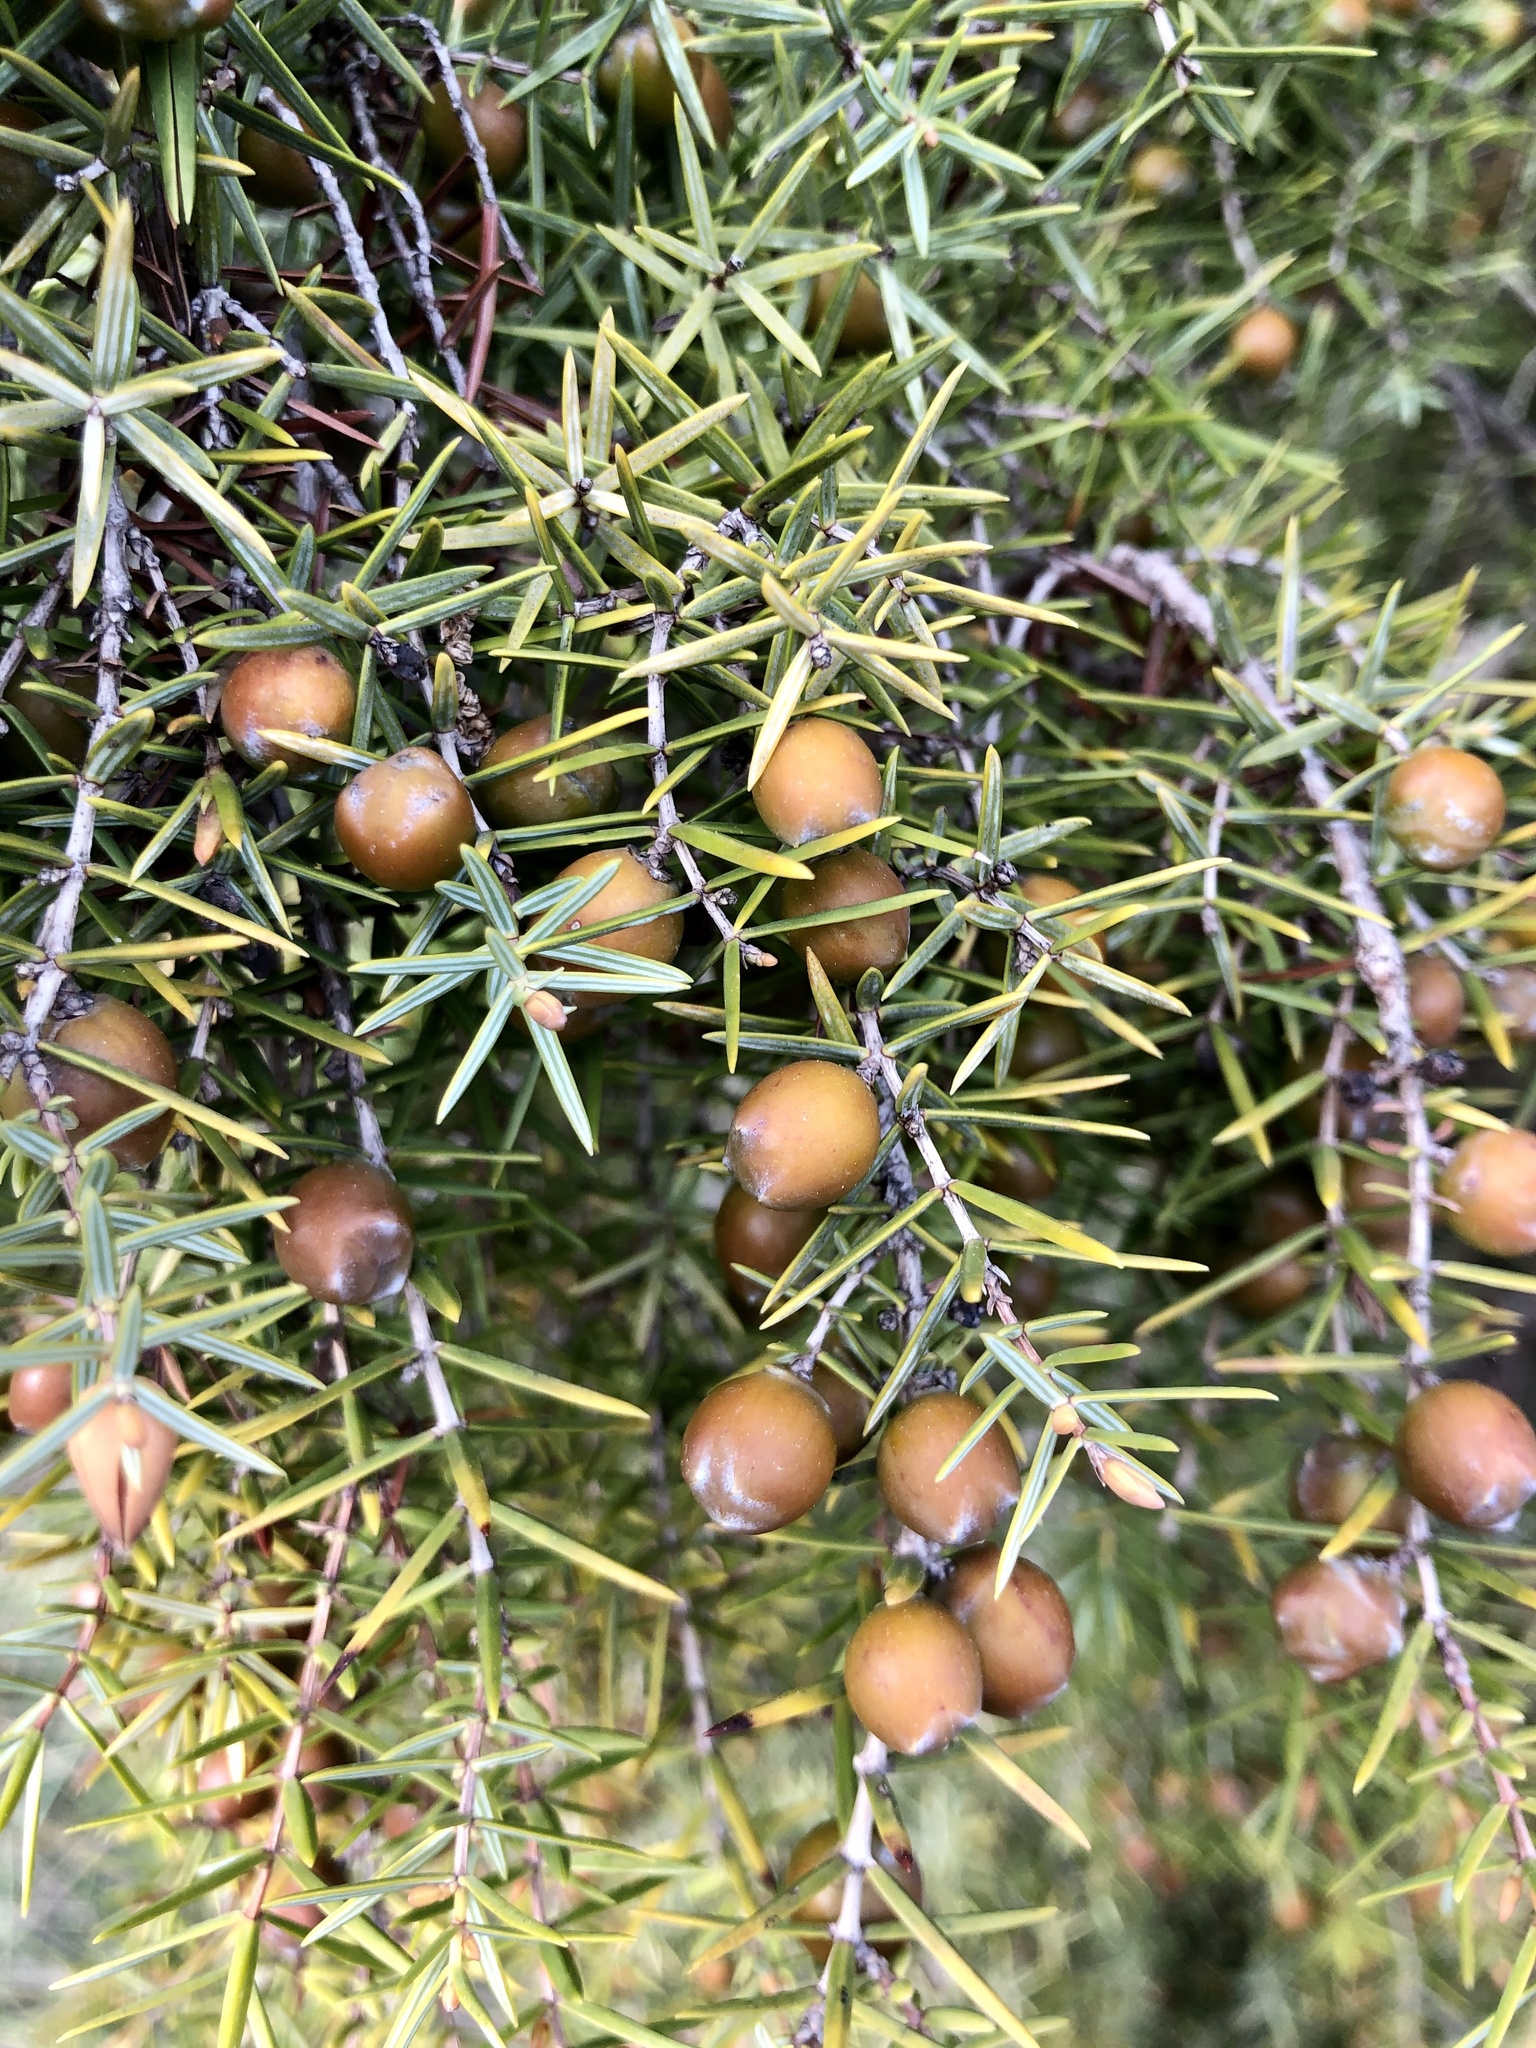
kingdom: Plantae
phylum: Tracheophyta
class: Pinopsida
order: Pinales
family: Cupressaceae
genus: Juniperus
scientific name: Juniperus oxycedrus
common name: Prickly juniper
